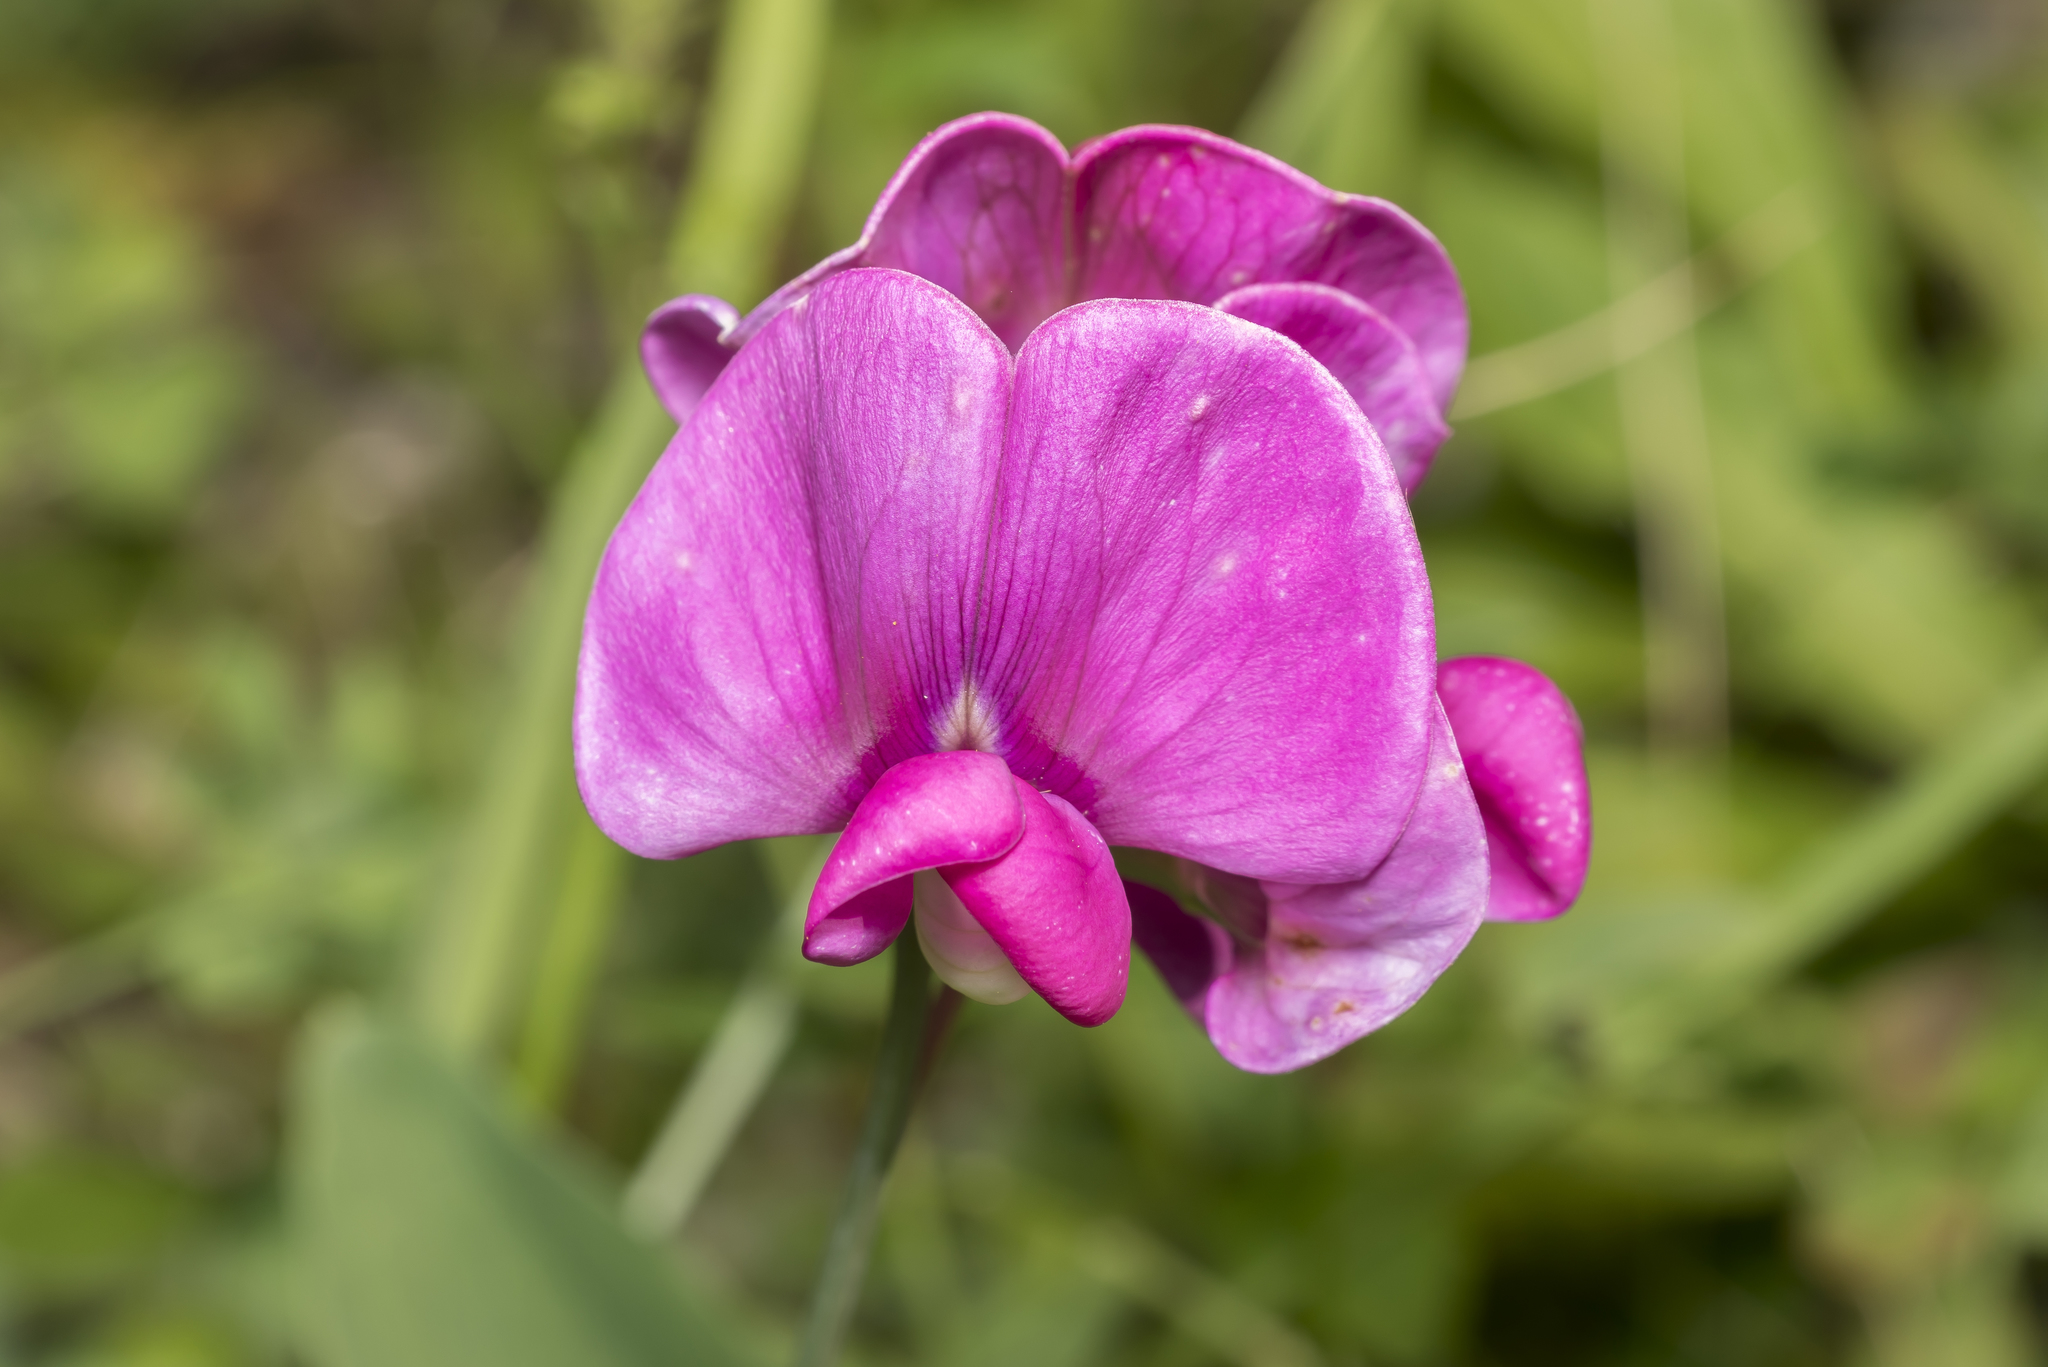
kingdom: Plantae
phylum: Tracheophyta
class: Magnoliopsida
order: Fabales
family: Fabaceae
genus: Lathyrus
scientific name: Lathyrus latifolius
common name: Perennial pea
